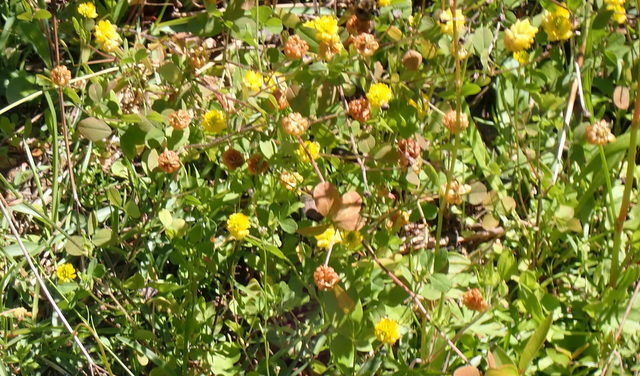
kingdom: Plantae
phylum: Tracheophyta
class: Magnoliopsida
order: Fabales
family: Fabaceae
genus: Trifolium
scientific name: Trifolium campestre
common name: Field clover
